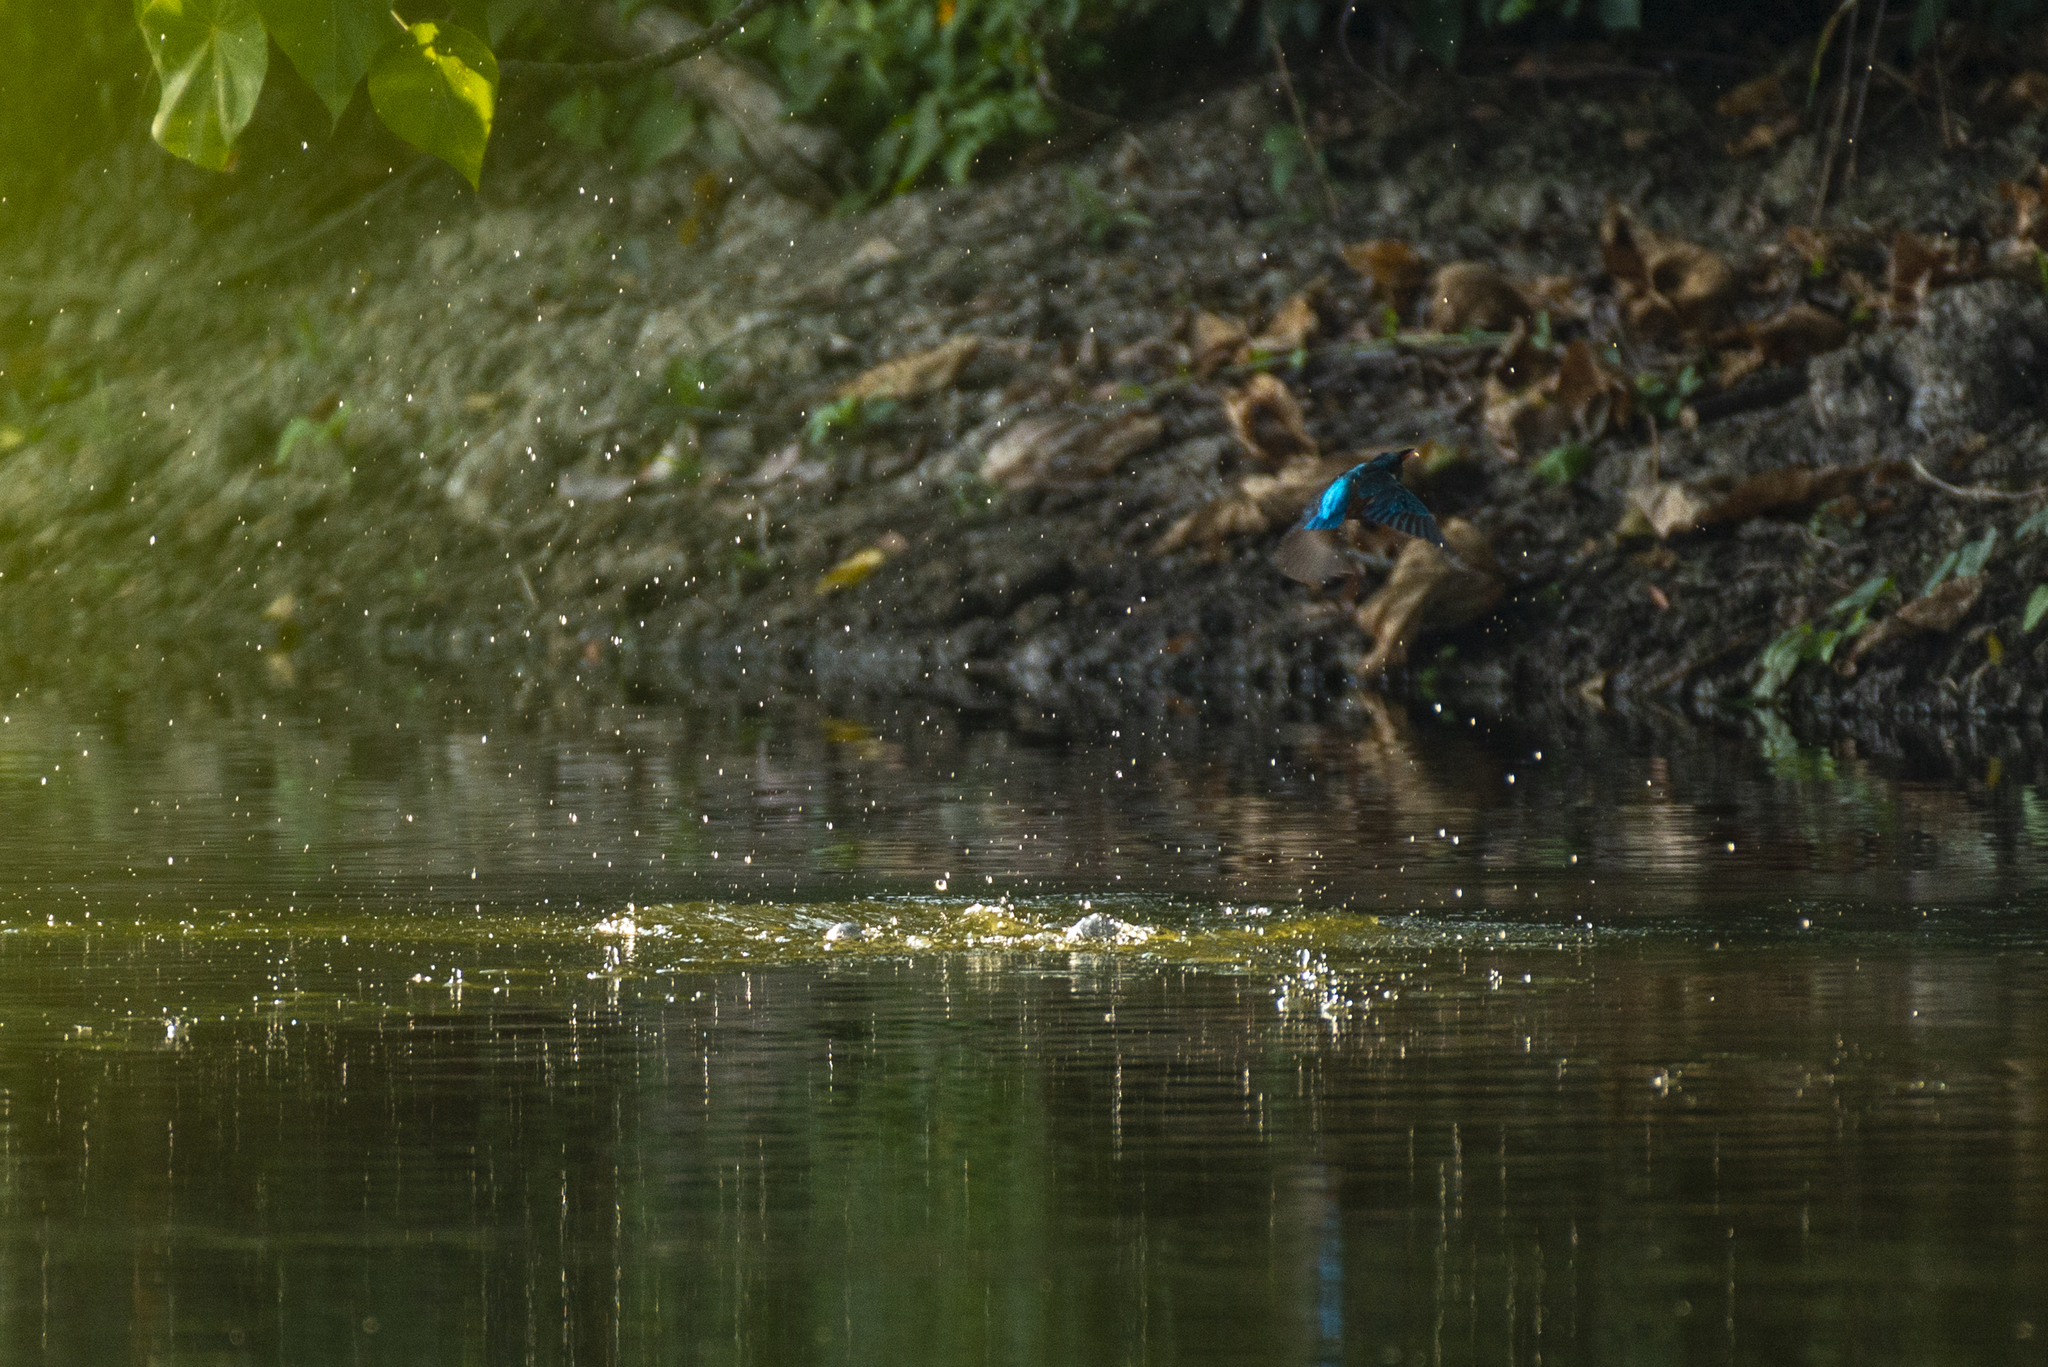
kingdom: Animalia
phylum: Chordata
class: Aves
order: Coraciiformes
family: Alcedinidae
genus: Alcedo
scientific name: Alcedo atthis
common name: Common kingfisher
